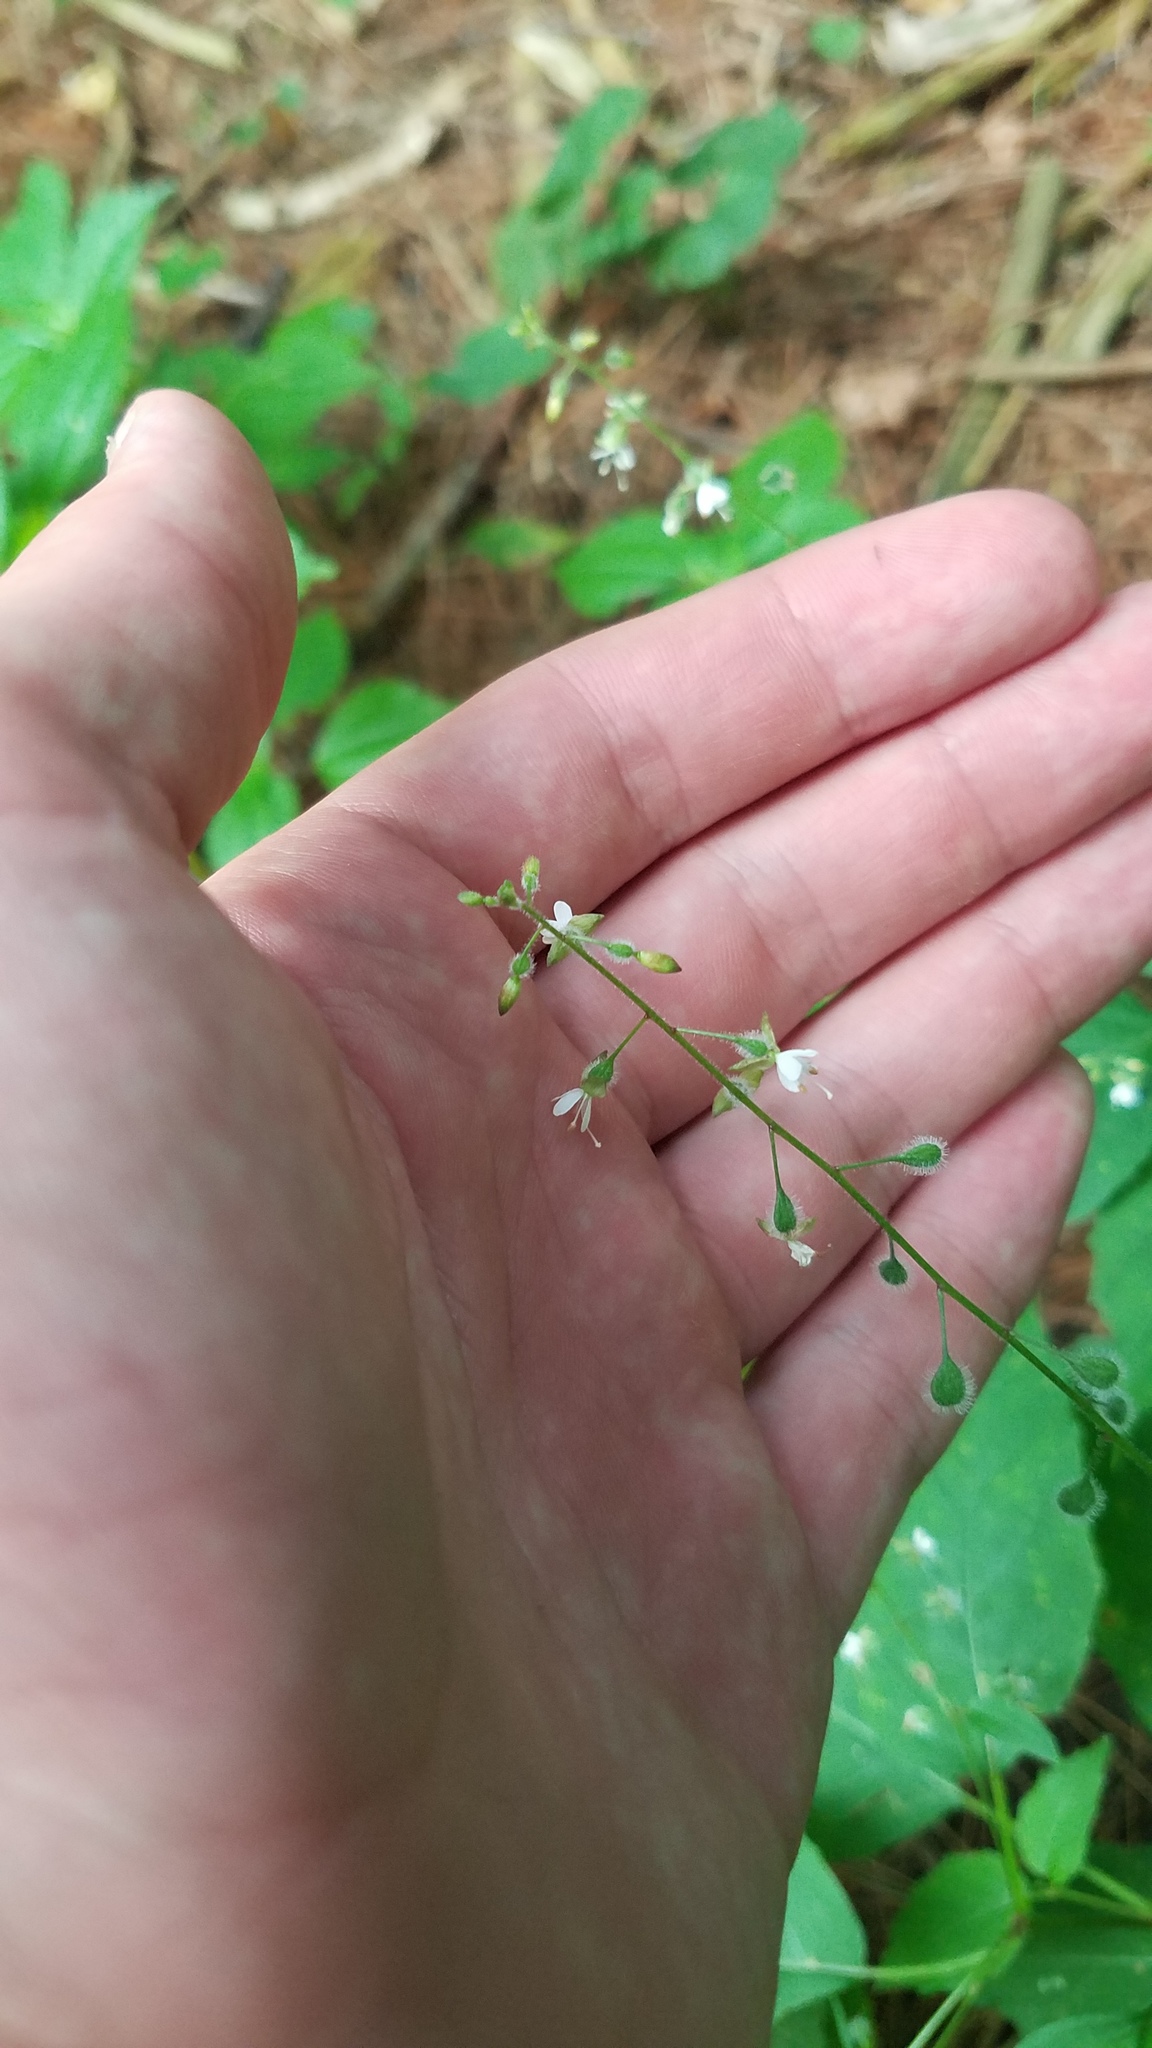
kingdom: Plantae
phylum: Tracheophyta
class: Magnoliopsida
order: Myrtales
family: Onagraceae
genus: Circaea
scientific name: Circaea canadensis
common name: Broad-leaved enchanter's nightshade
